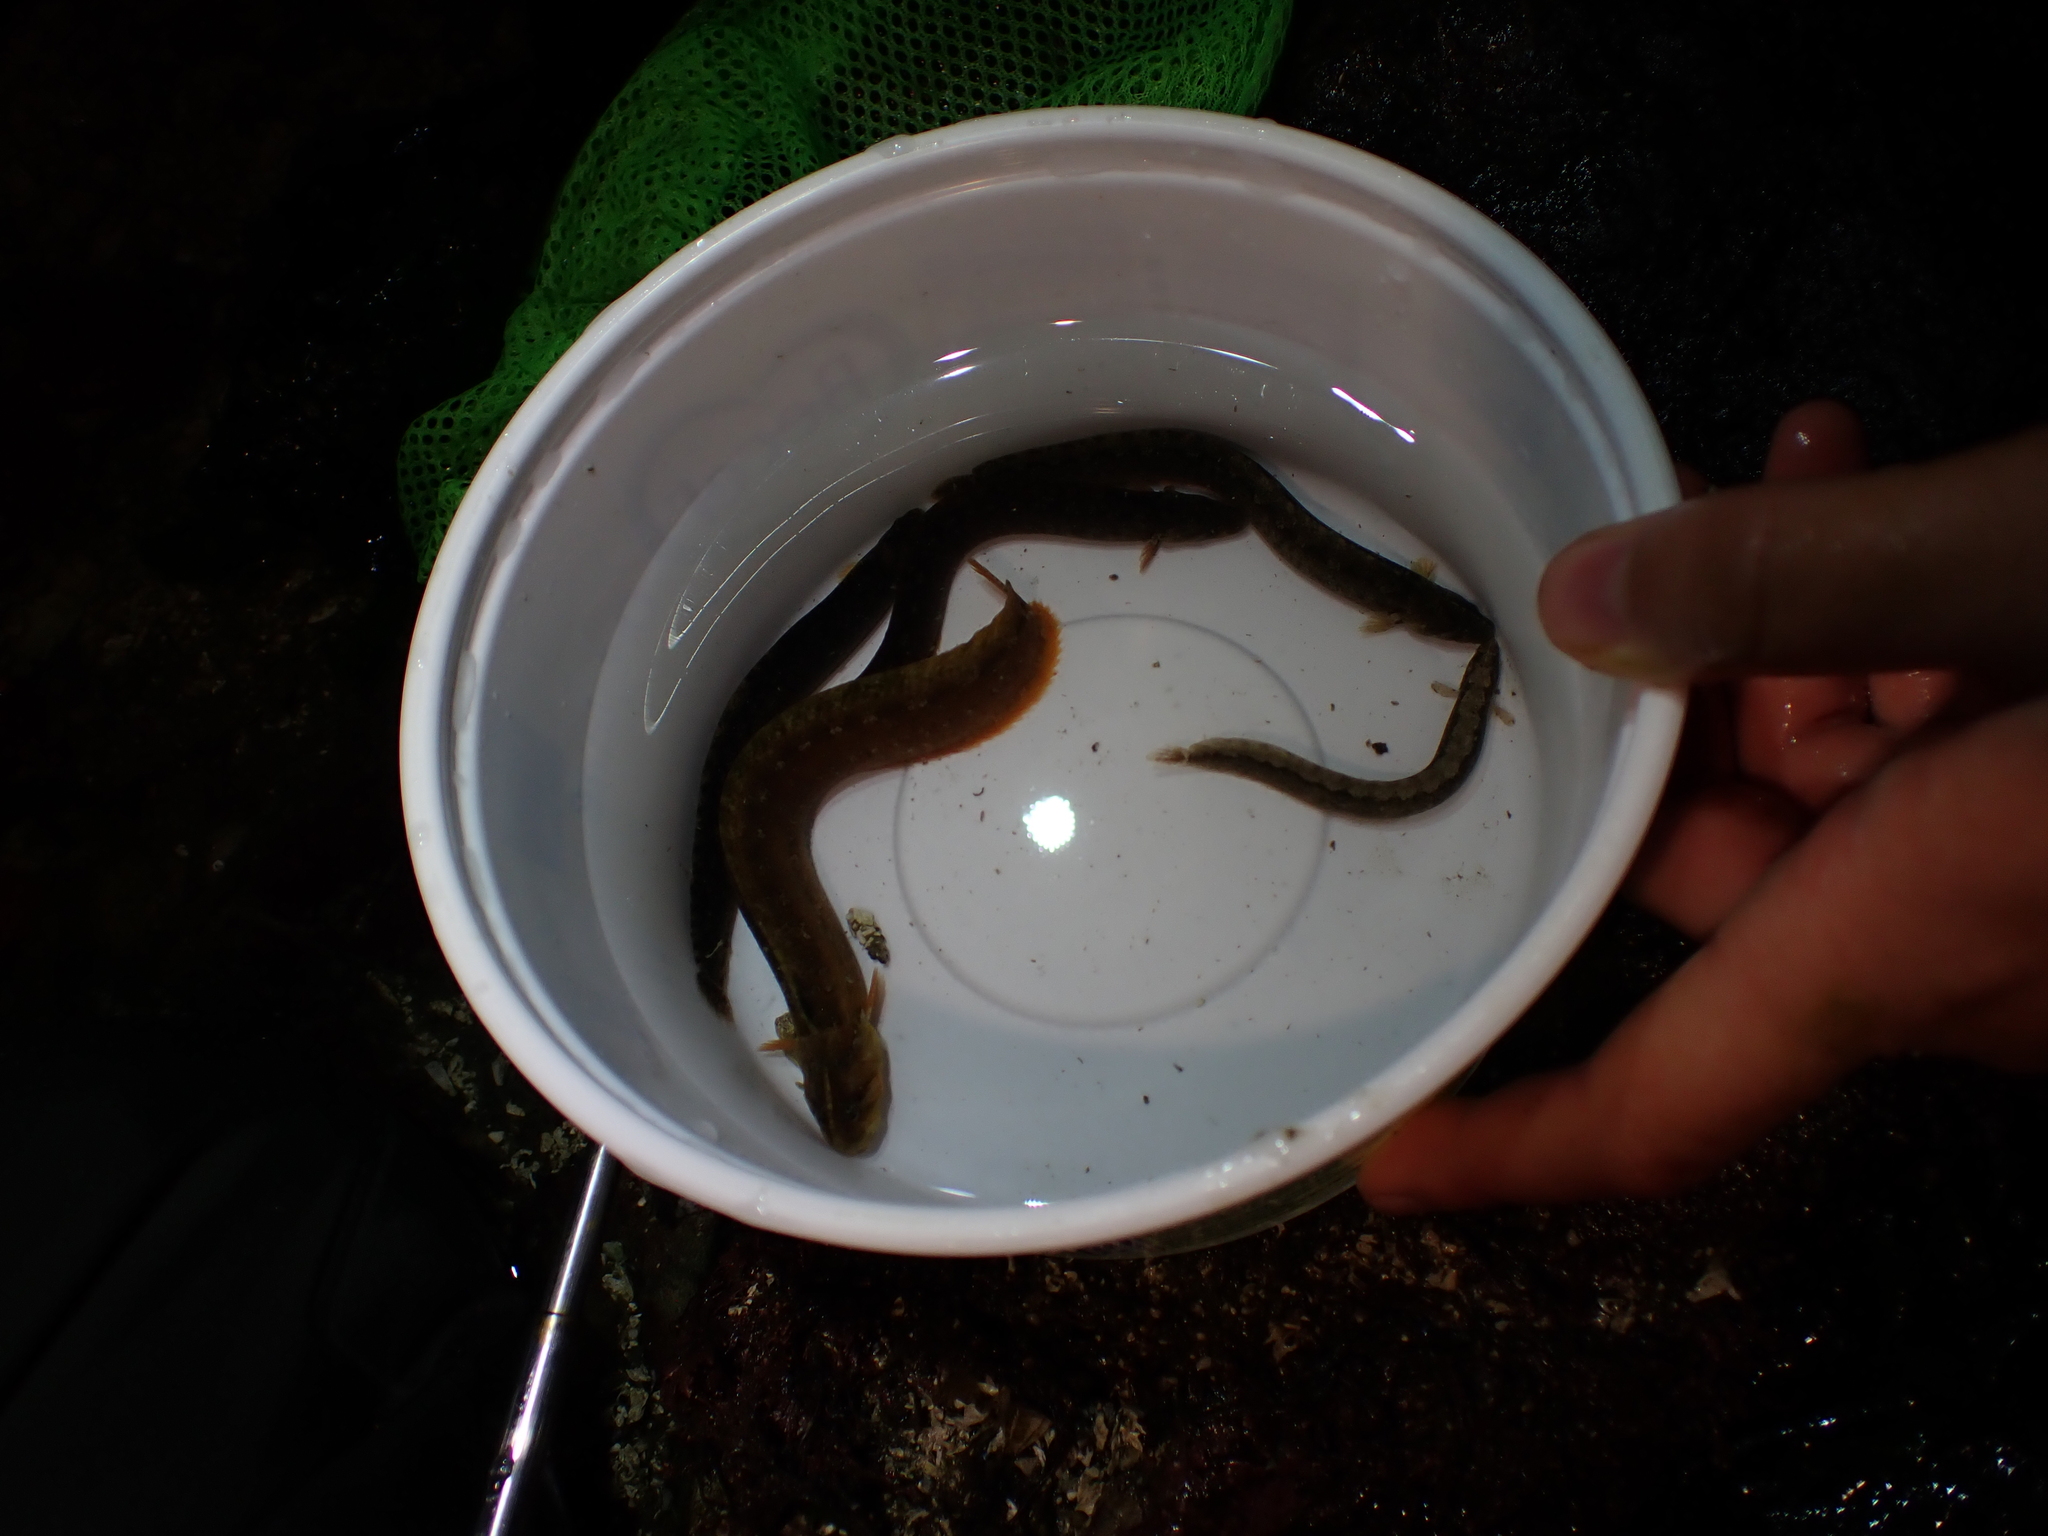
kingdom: Animalia
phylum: Chordata
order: Perciformes
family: Stichaeidae
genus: Anoplarchus
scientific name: Anoplarchus purpurescens
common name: High cockscomb
